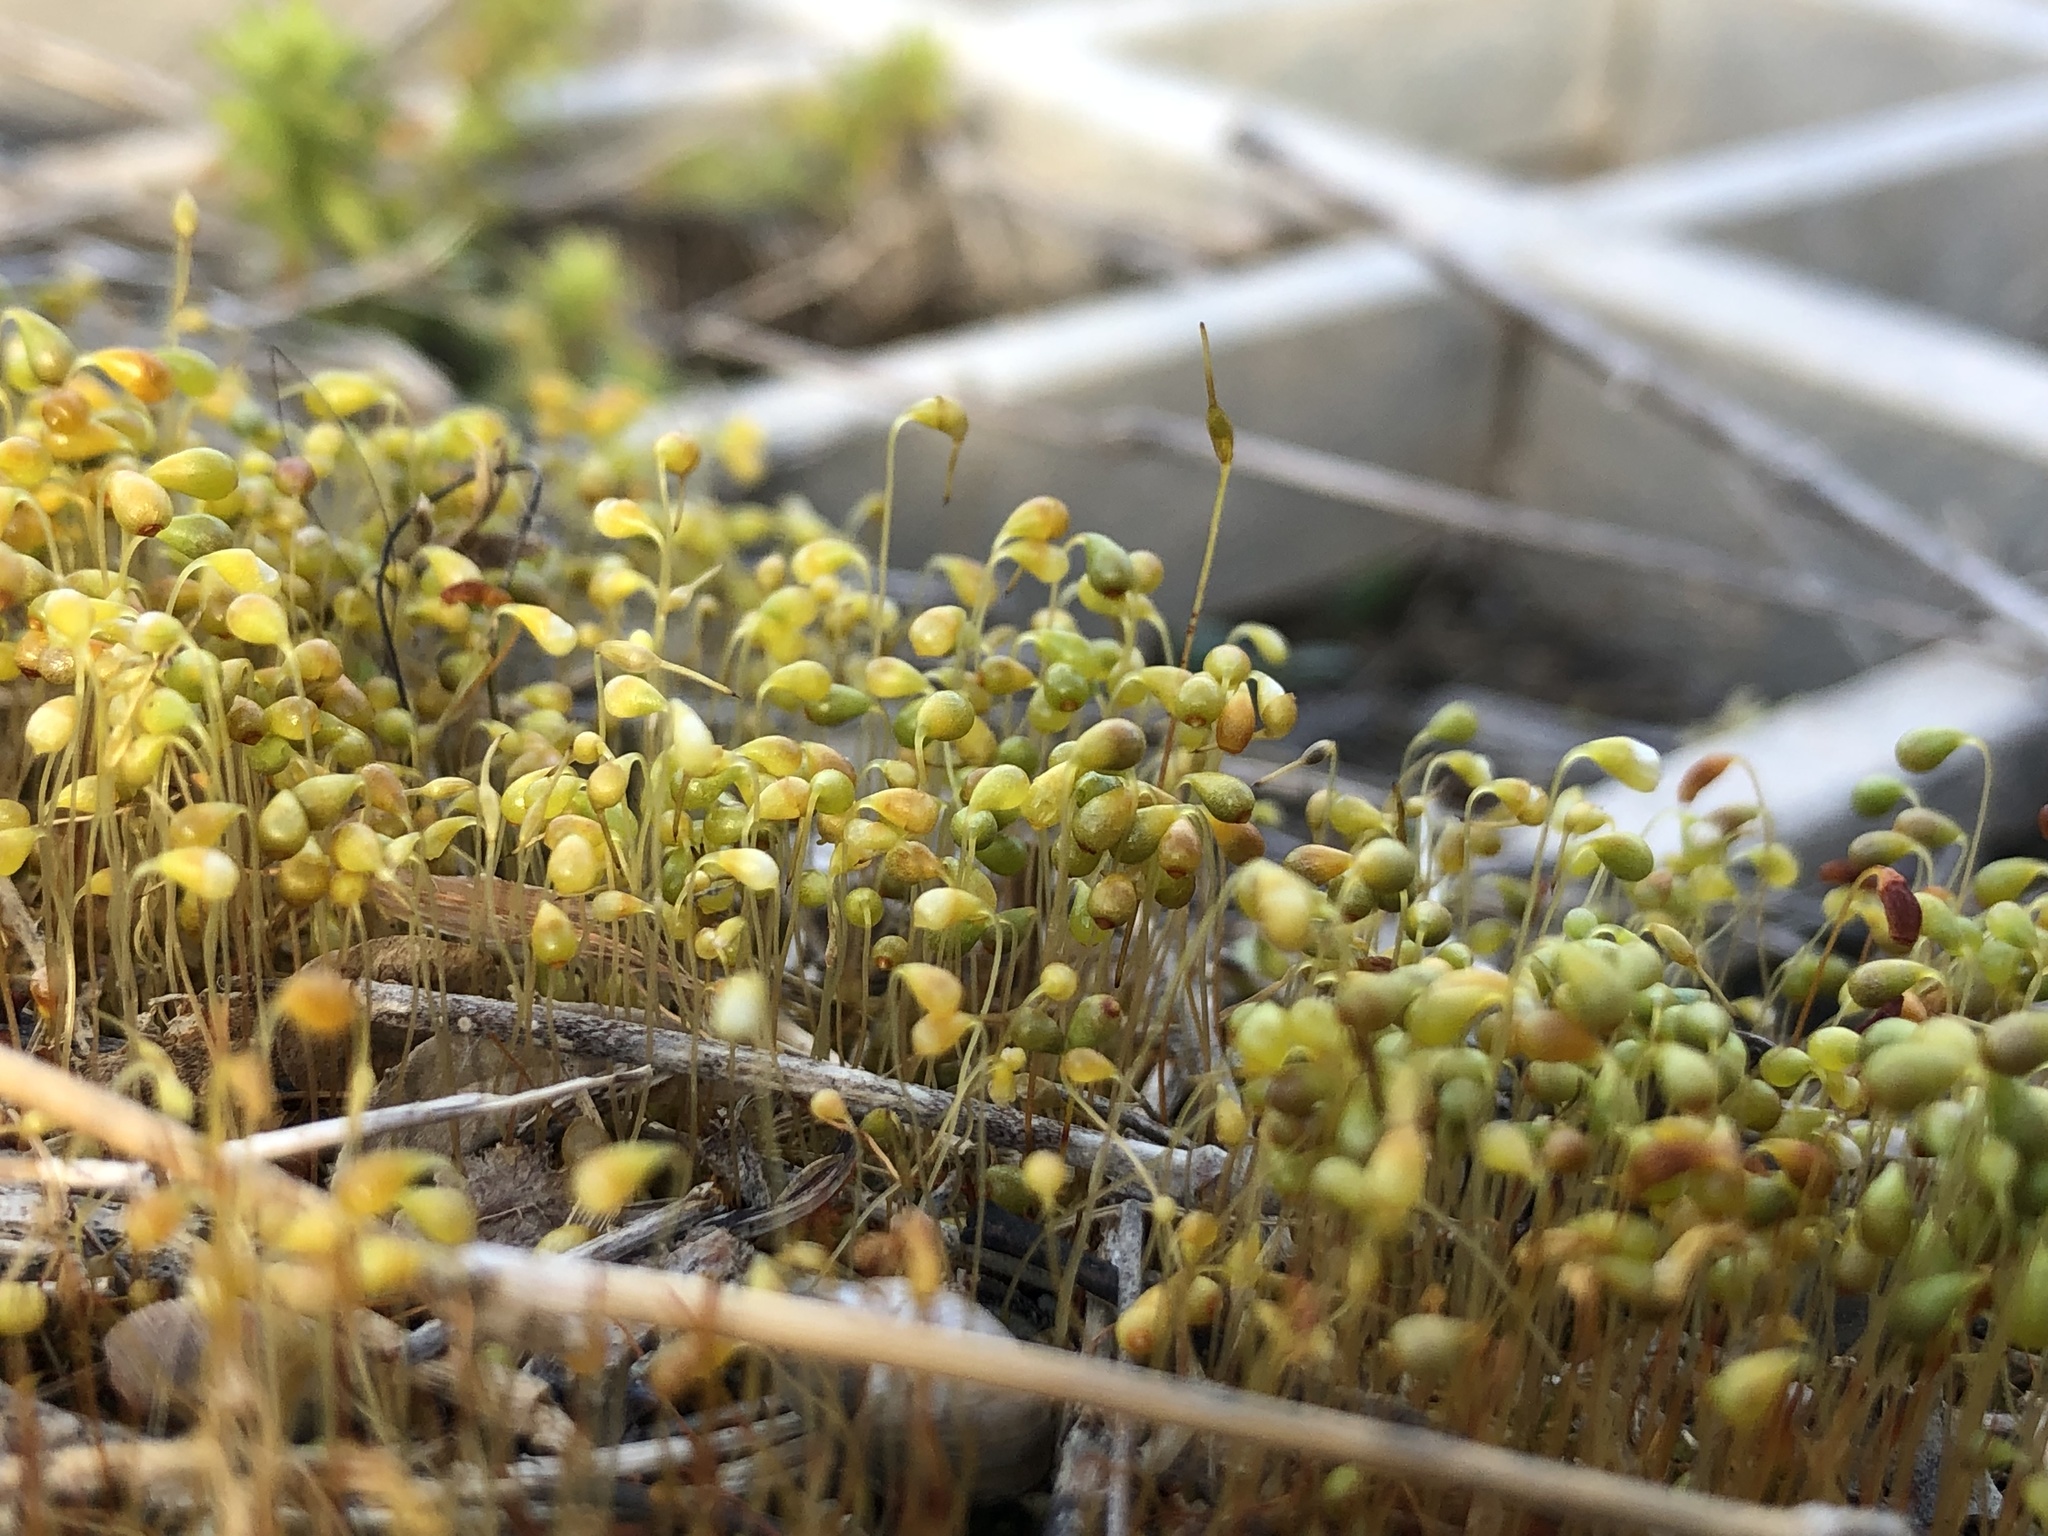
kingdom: Plantae
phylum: Bryophyta
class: Bryopsida
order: Funariales
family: Funariaceae
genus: Funaria
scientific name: Funaria hygrometrica
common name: Common cord moss
